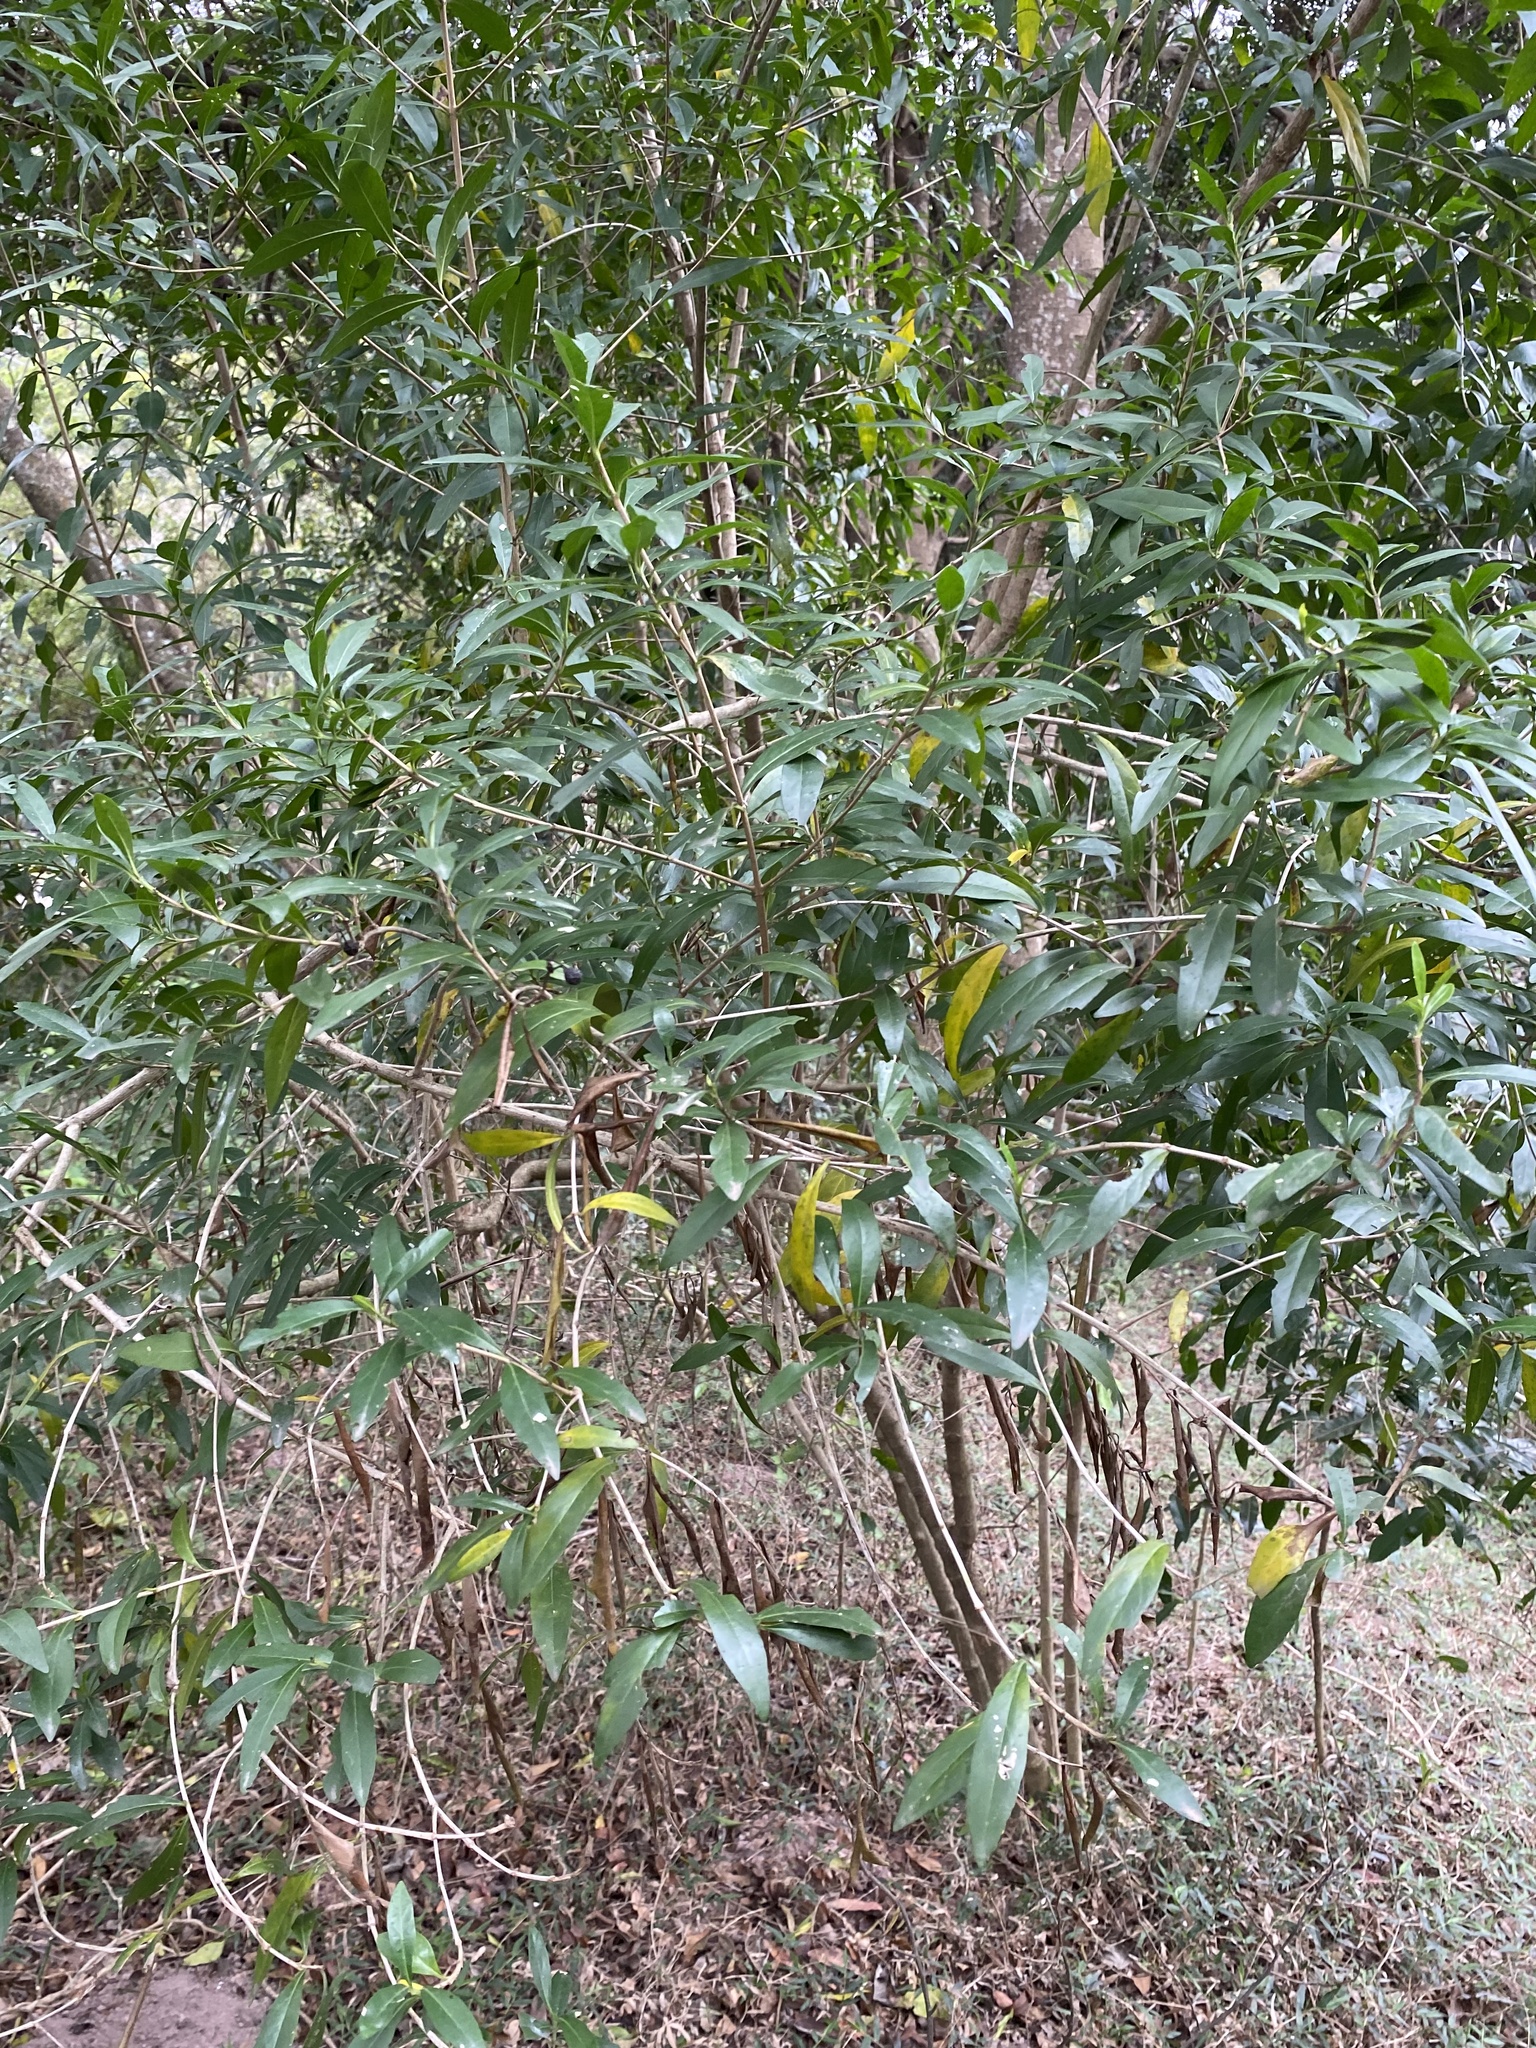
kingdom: Plantae
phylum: Tracheophyta
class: Magnoliopsida
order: Gentianales
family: Rubiaceae
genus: Pavetta
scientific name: Pavetta lanceolata
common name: Weeping brides-bush
